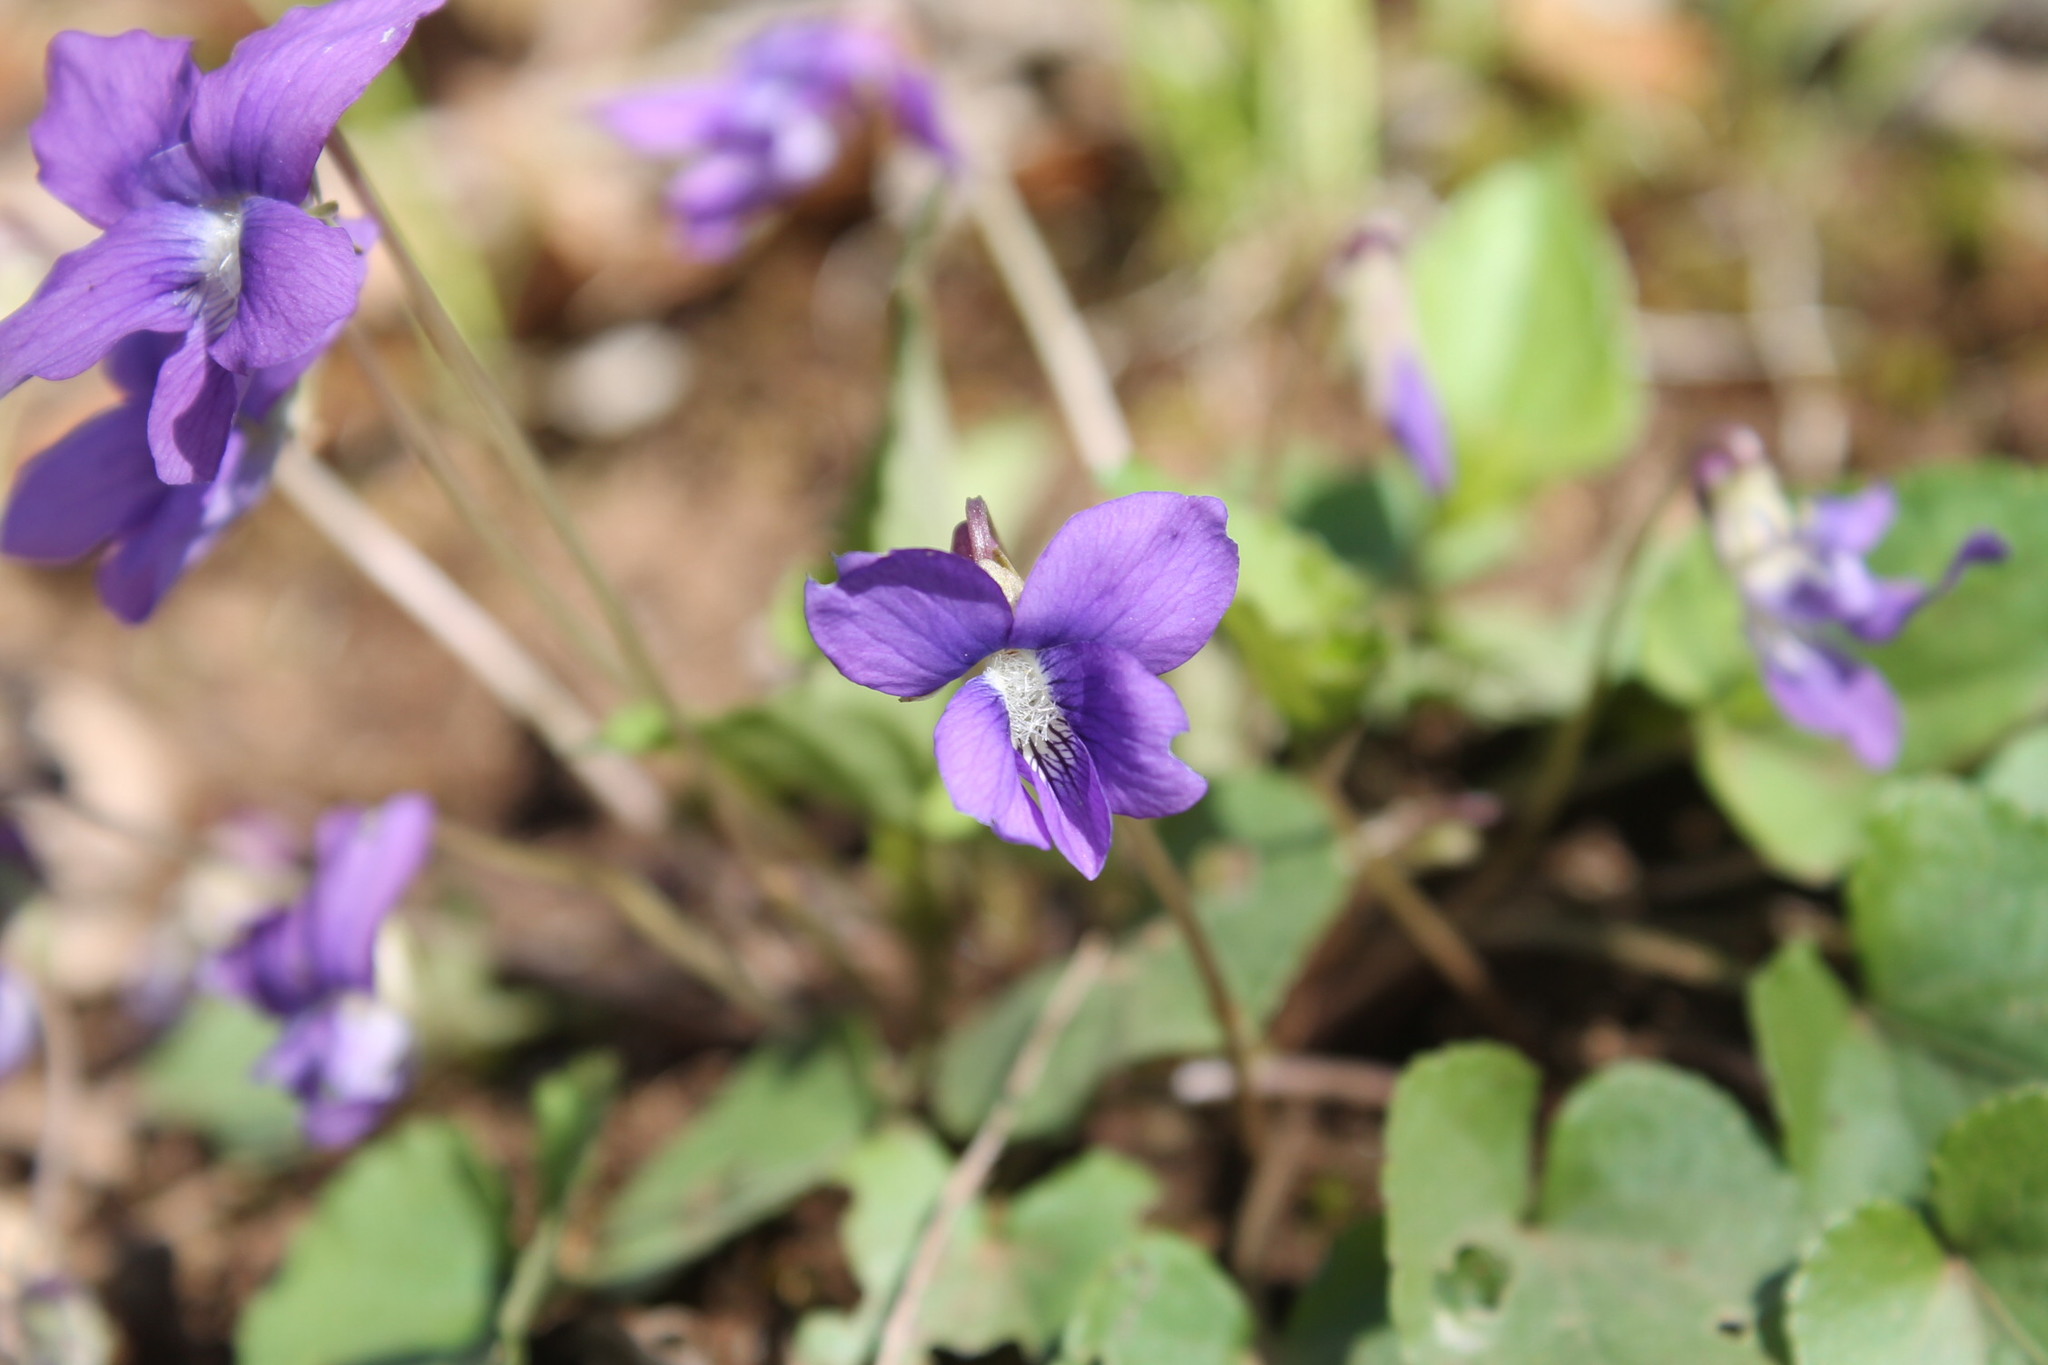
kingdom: Plantae
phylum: Tracheophyta
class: Magnoliopsida
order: Malpighiales
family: Violaceae
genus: Viola
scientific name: Viola sororia
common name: Dooryard violet
